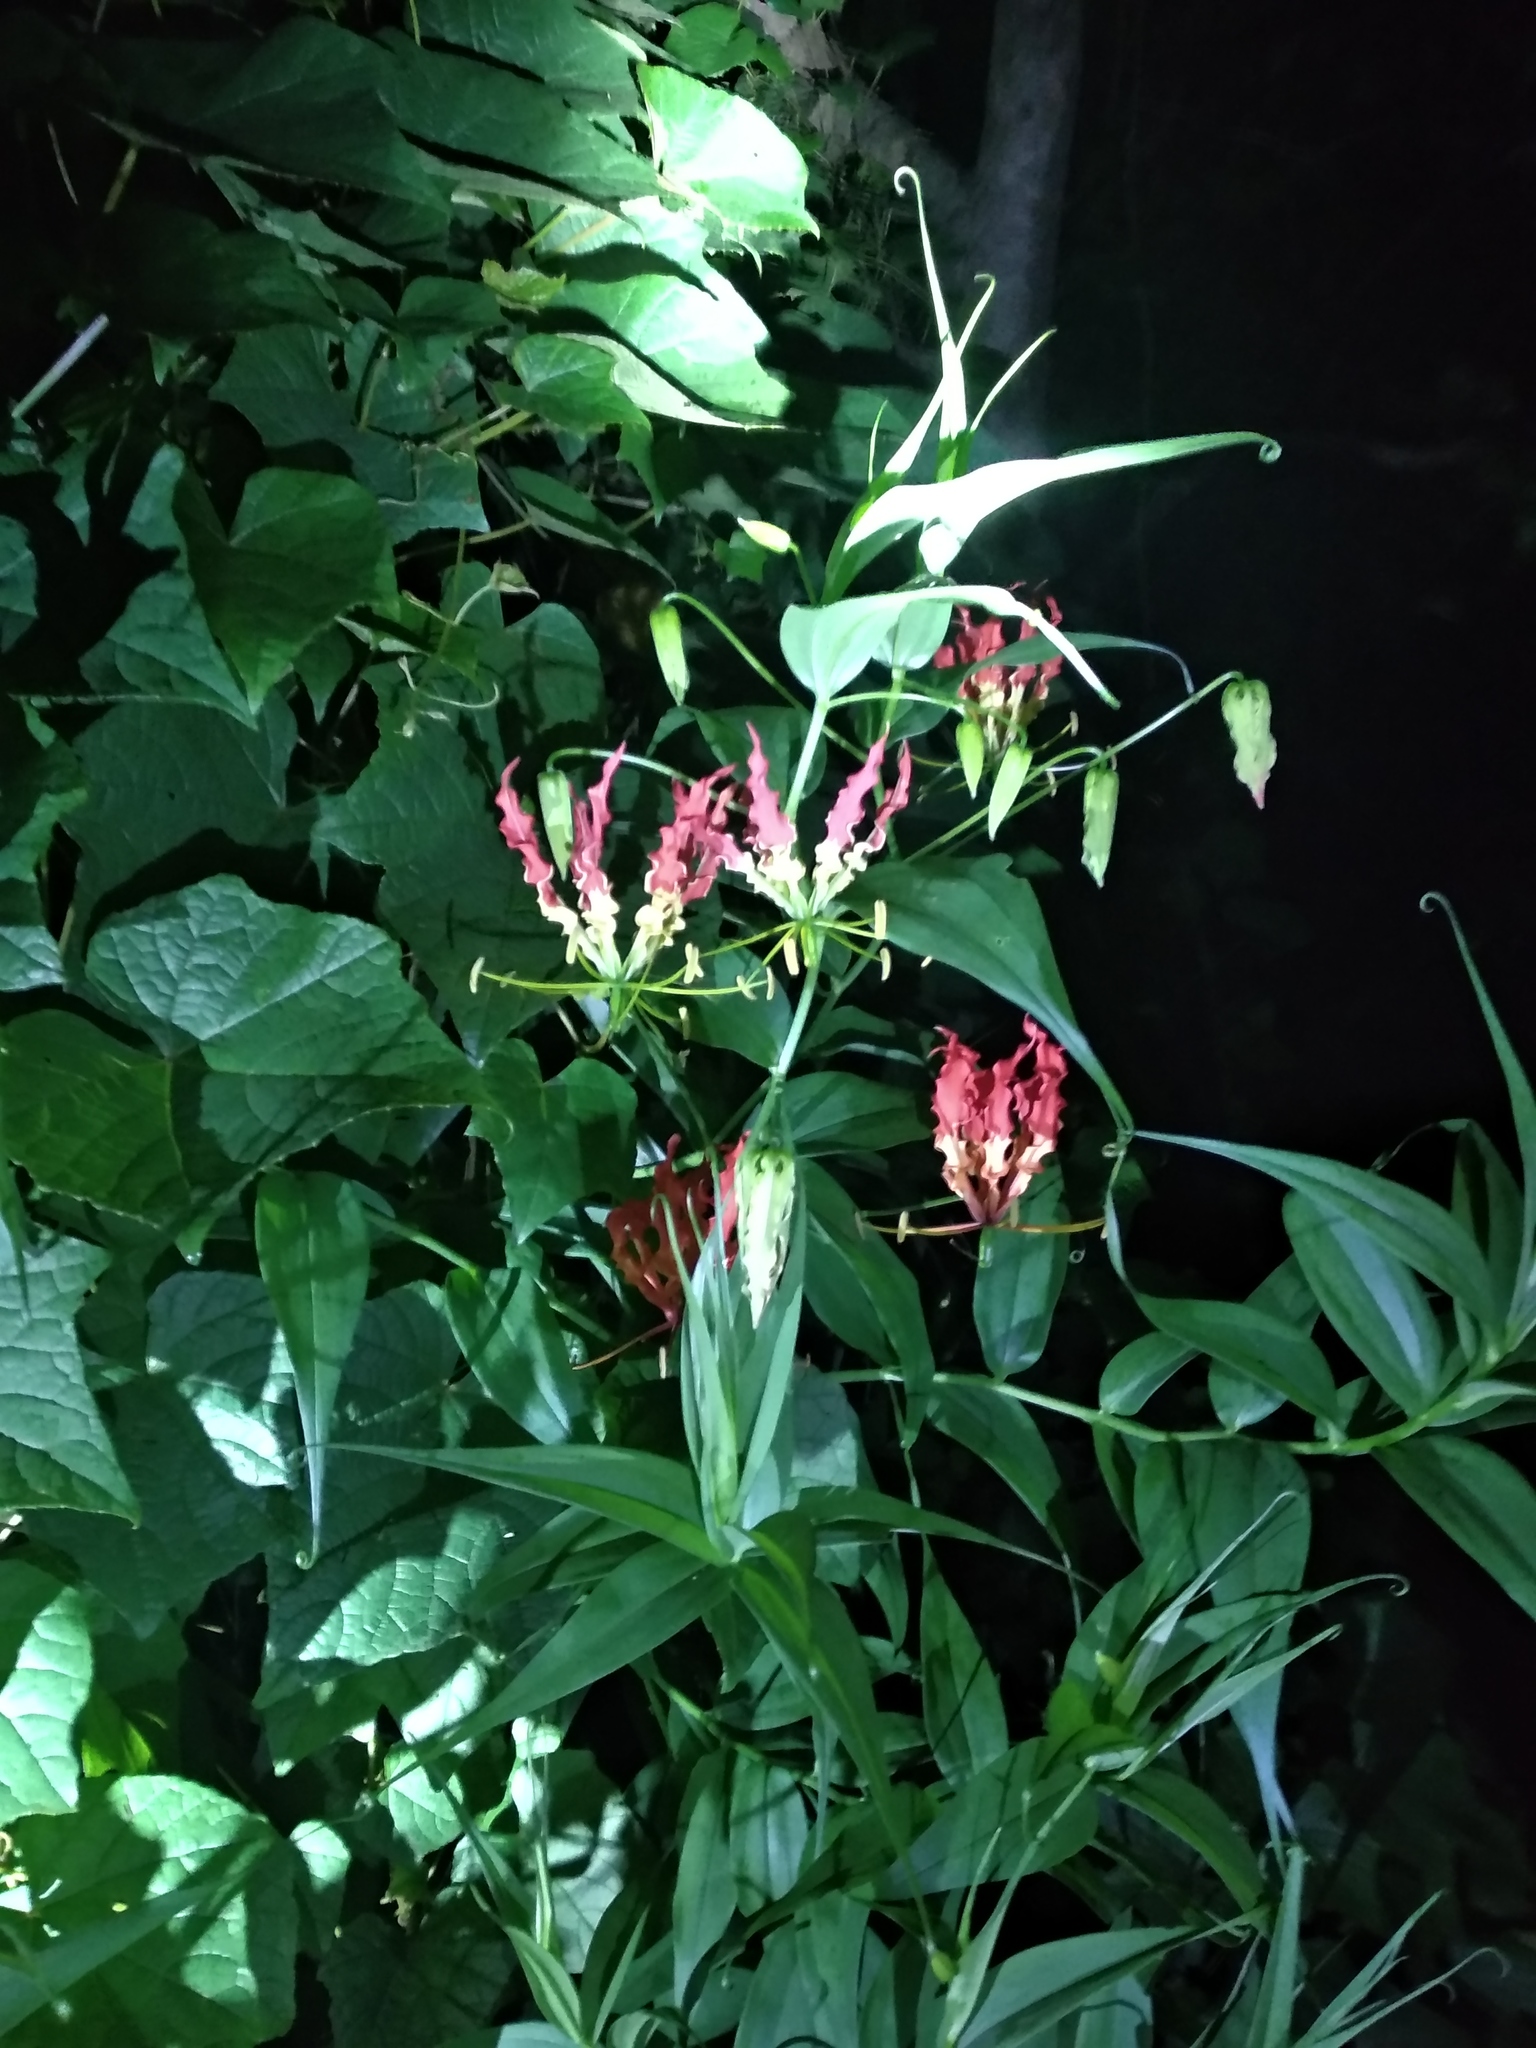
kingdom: Plantae
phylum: Tracheophyta
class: Liliopsida
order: Liliales
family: Colchicaceae
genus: Gloriosa
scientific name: Gloriosa superba
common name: Flame lily
